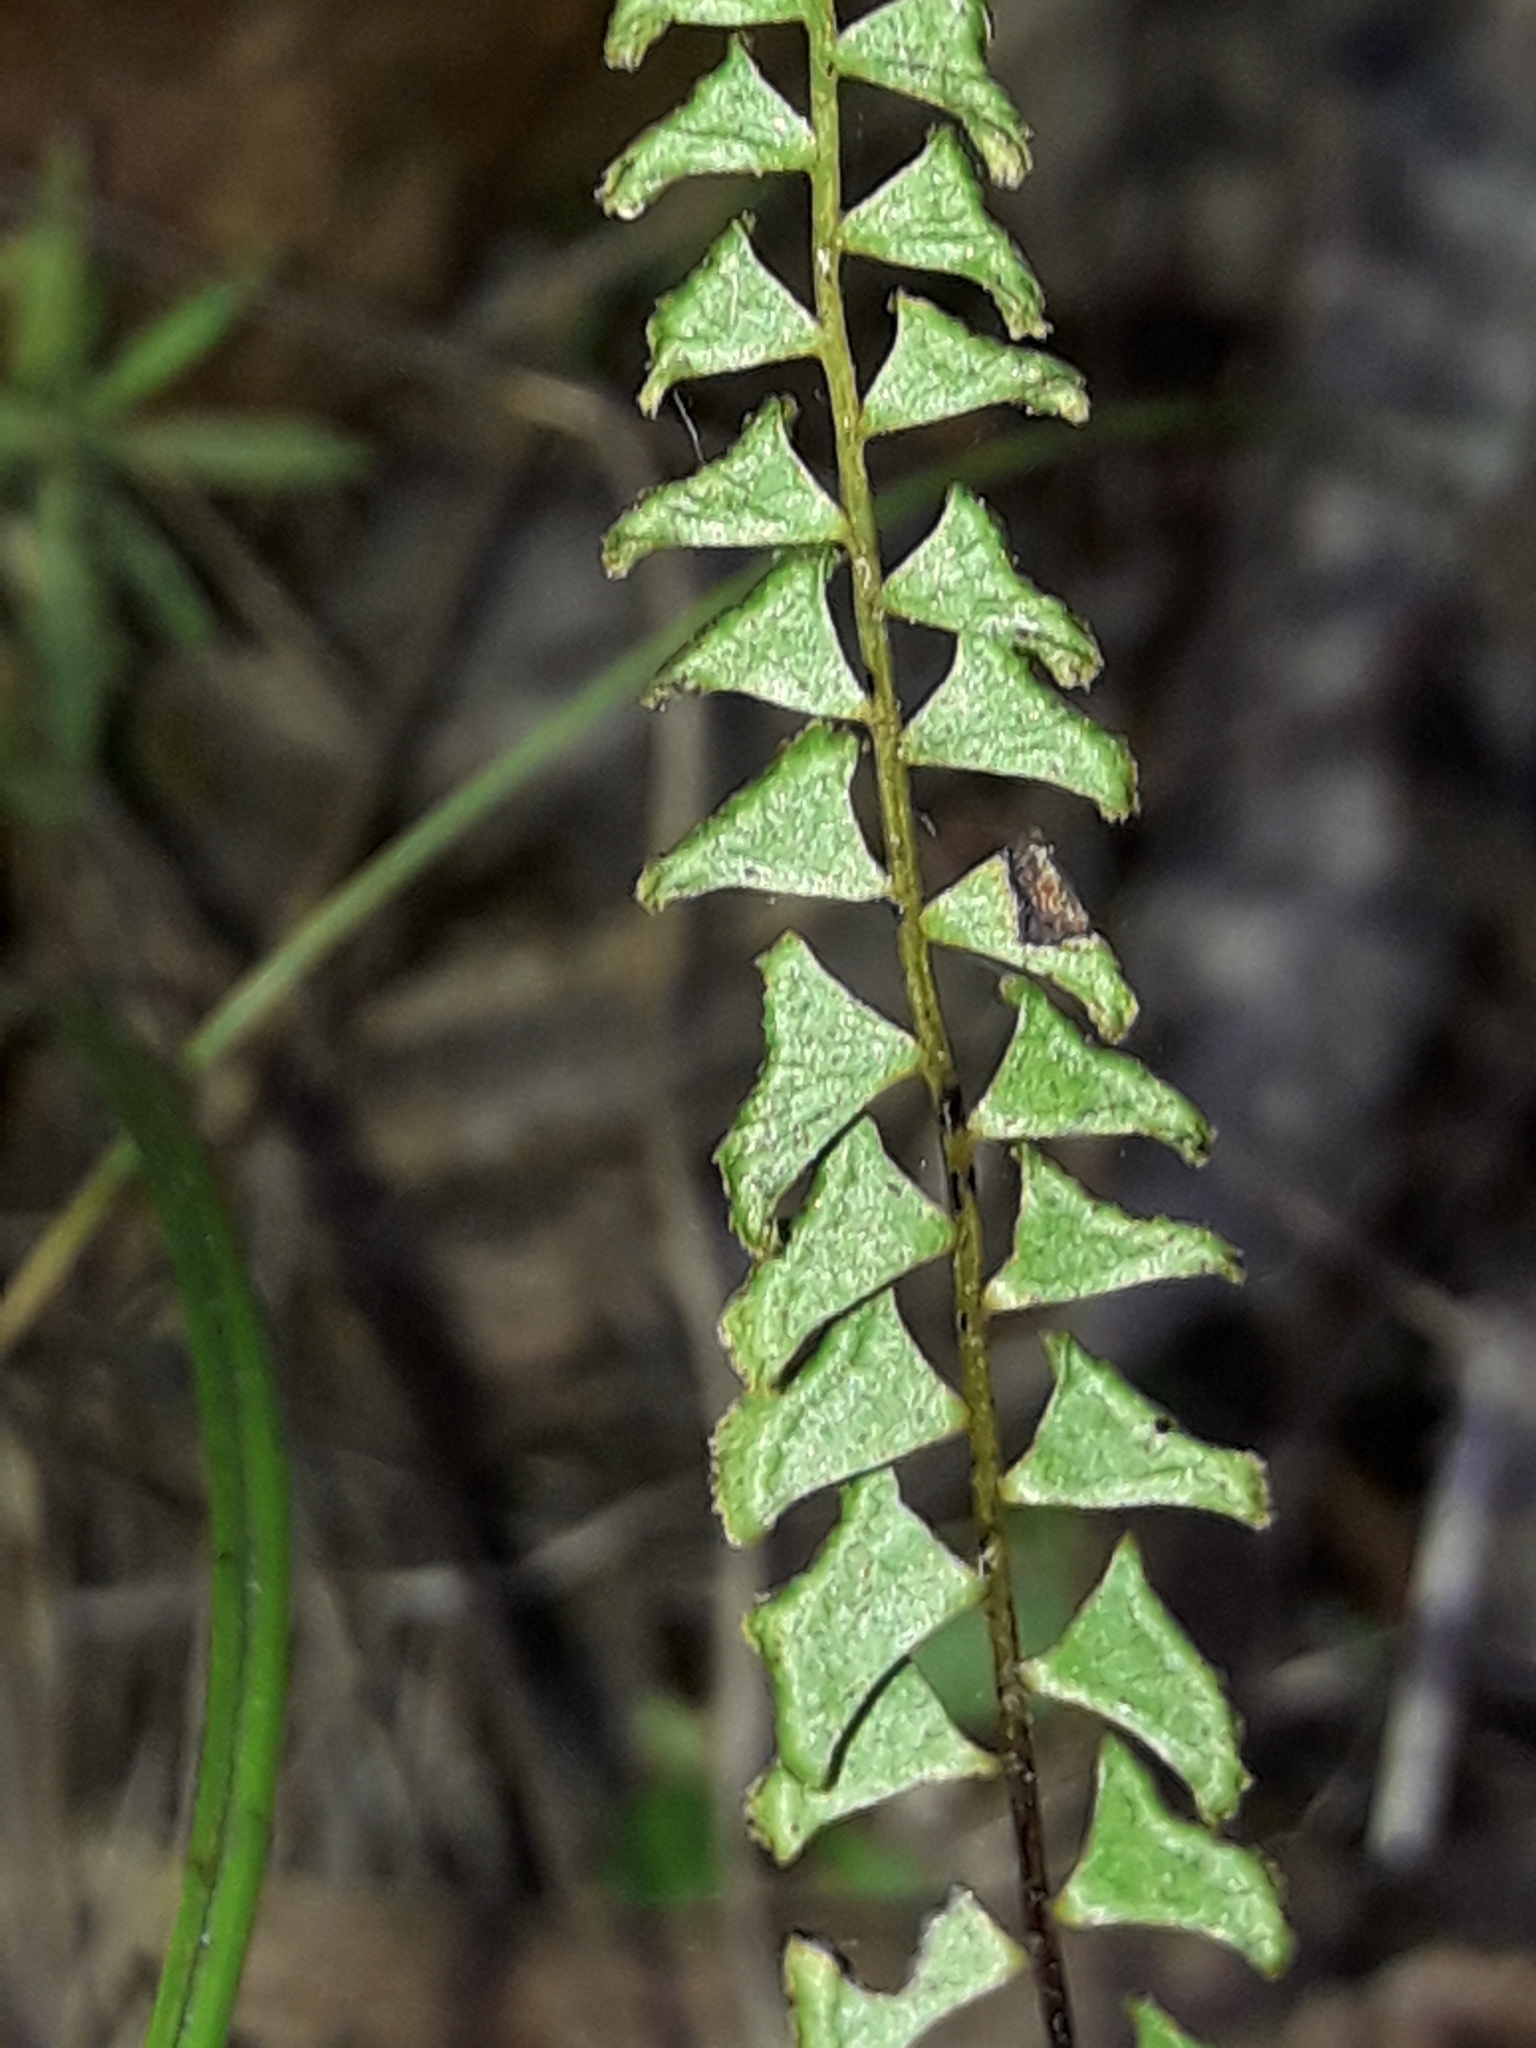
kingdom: Plantae
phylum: Tracheophyta
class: Polypodiopsida
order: Polypodiales
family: Lindsaeaceae
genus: Lindsaea
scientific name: Lindsaea linearis
